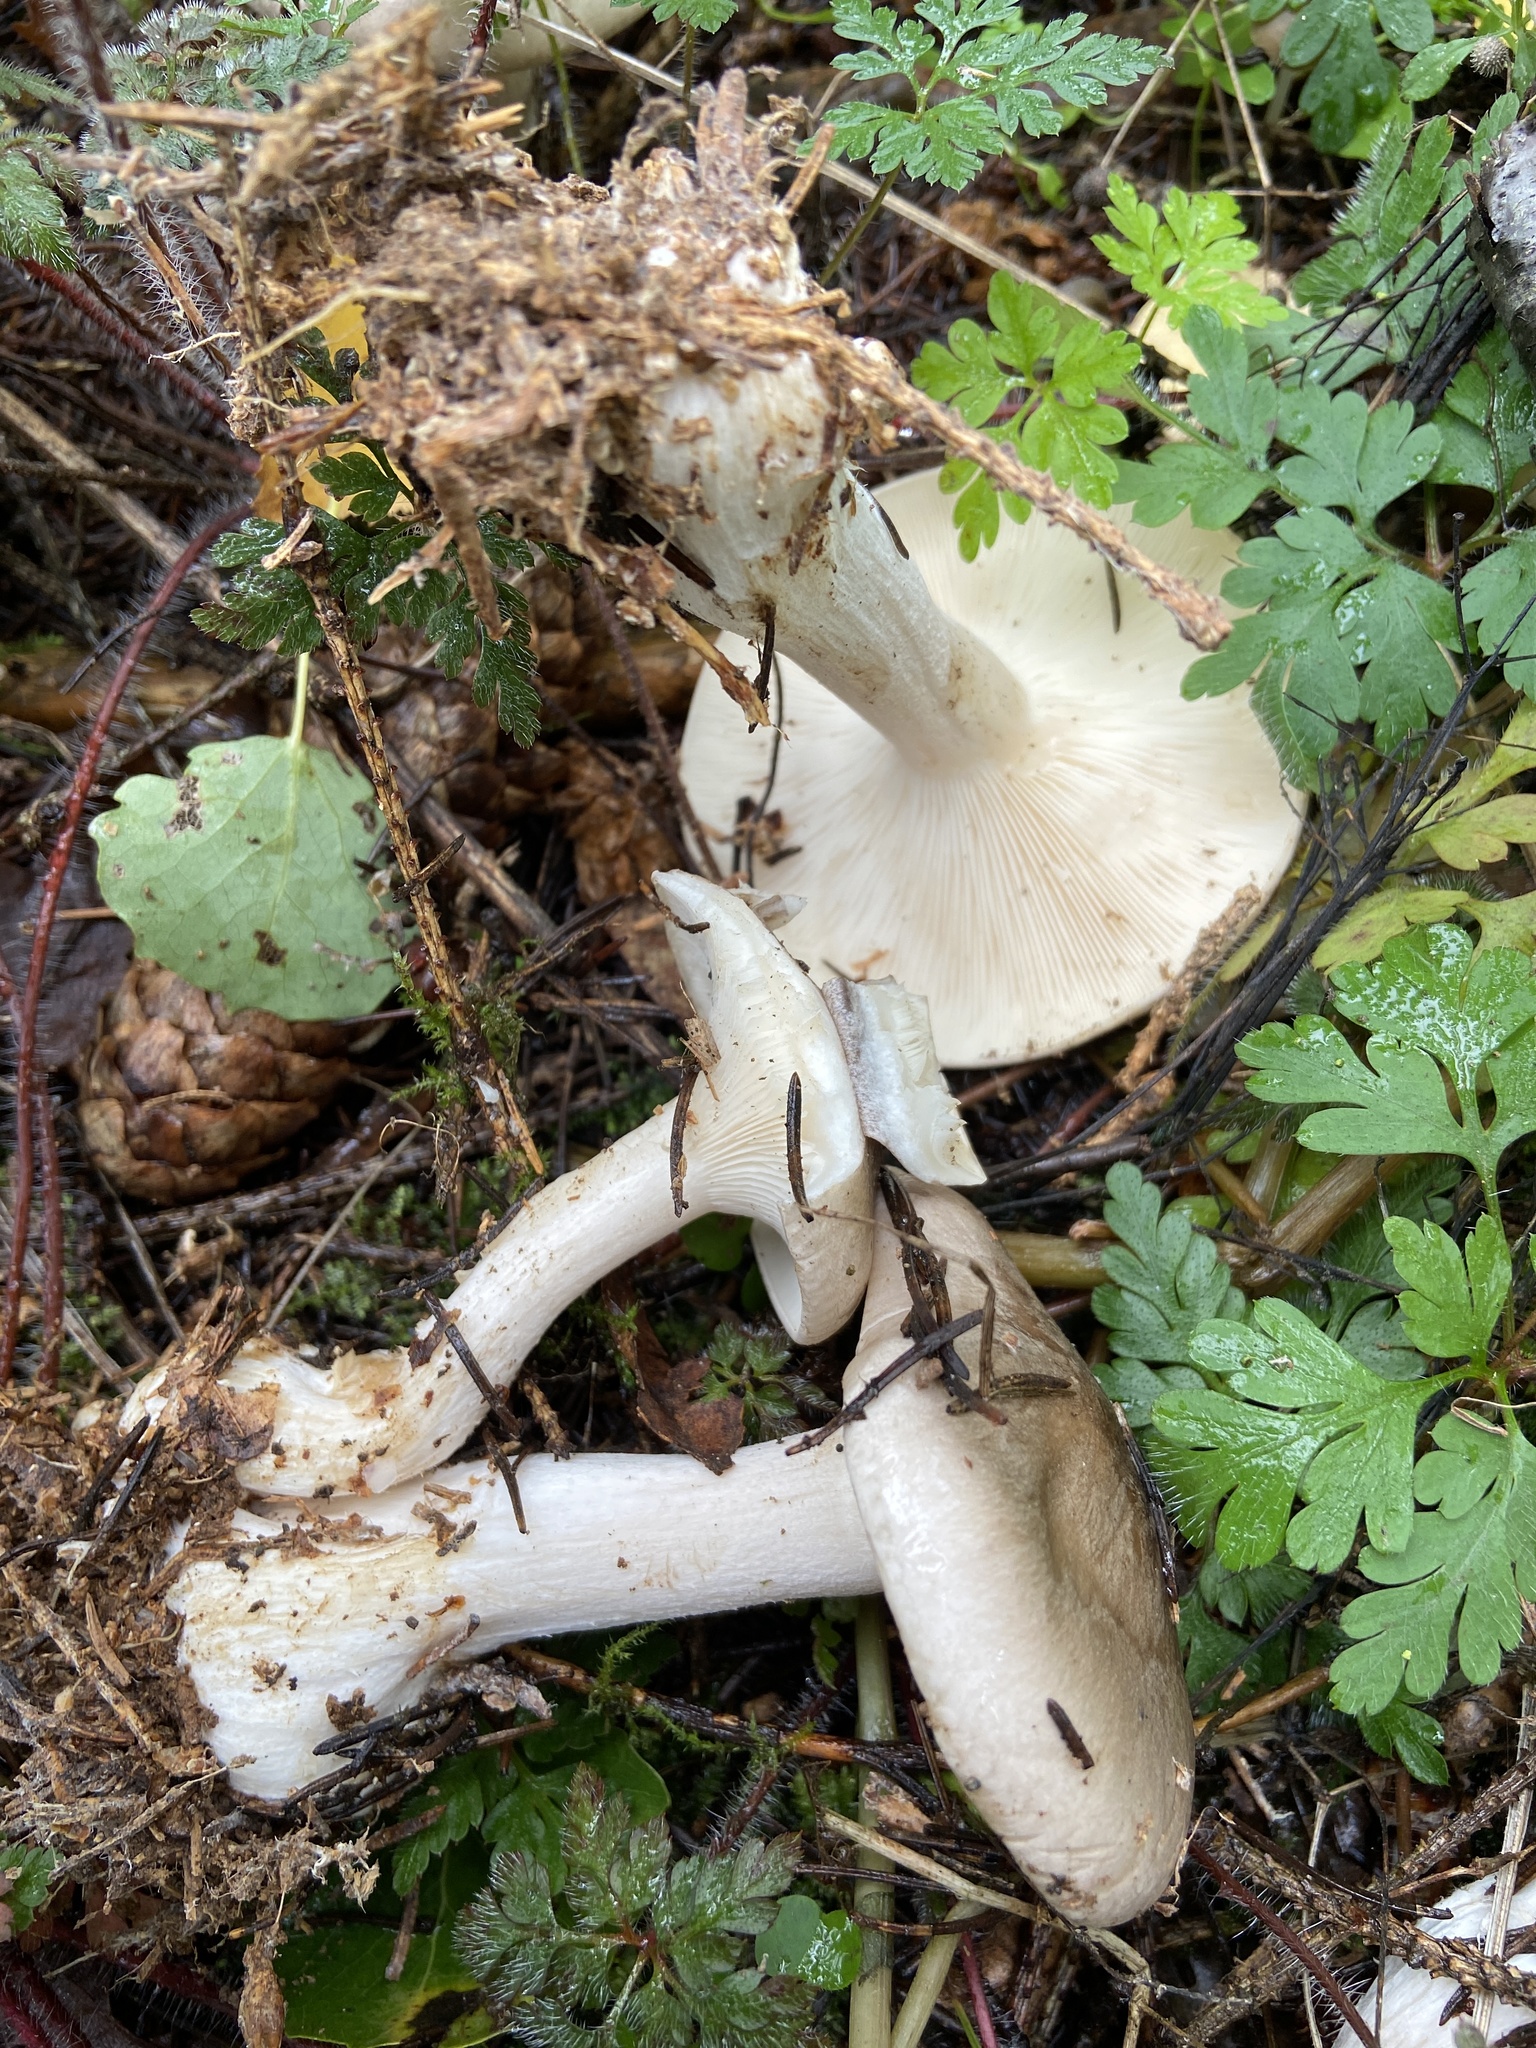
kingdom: Fungi
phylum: Basidiomycota
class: Agaricomycetes
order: Agaricales
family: Tricholomataceae
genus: Clitocybe
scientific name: Clitocybe nebularis
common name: Clouded agaric
